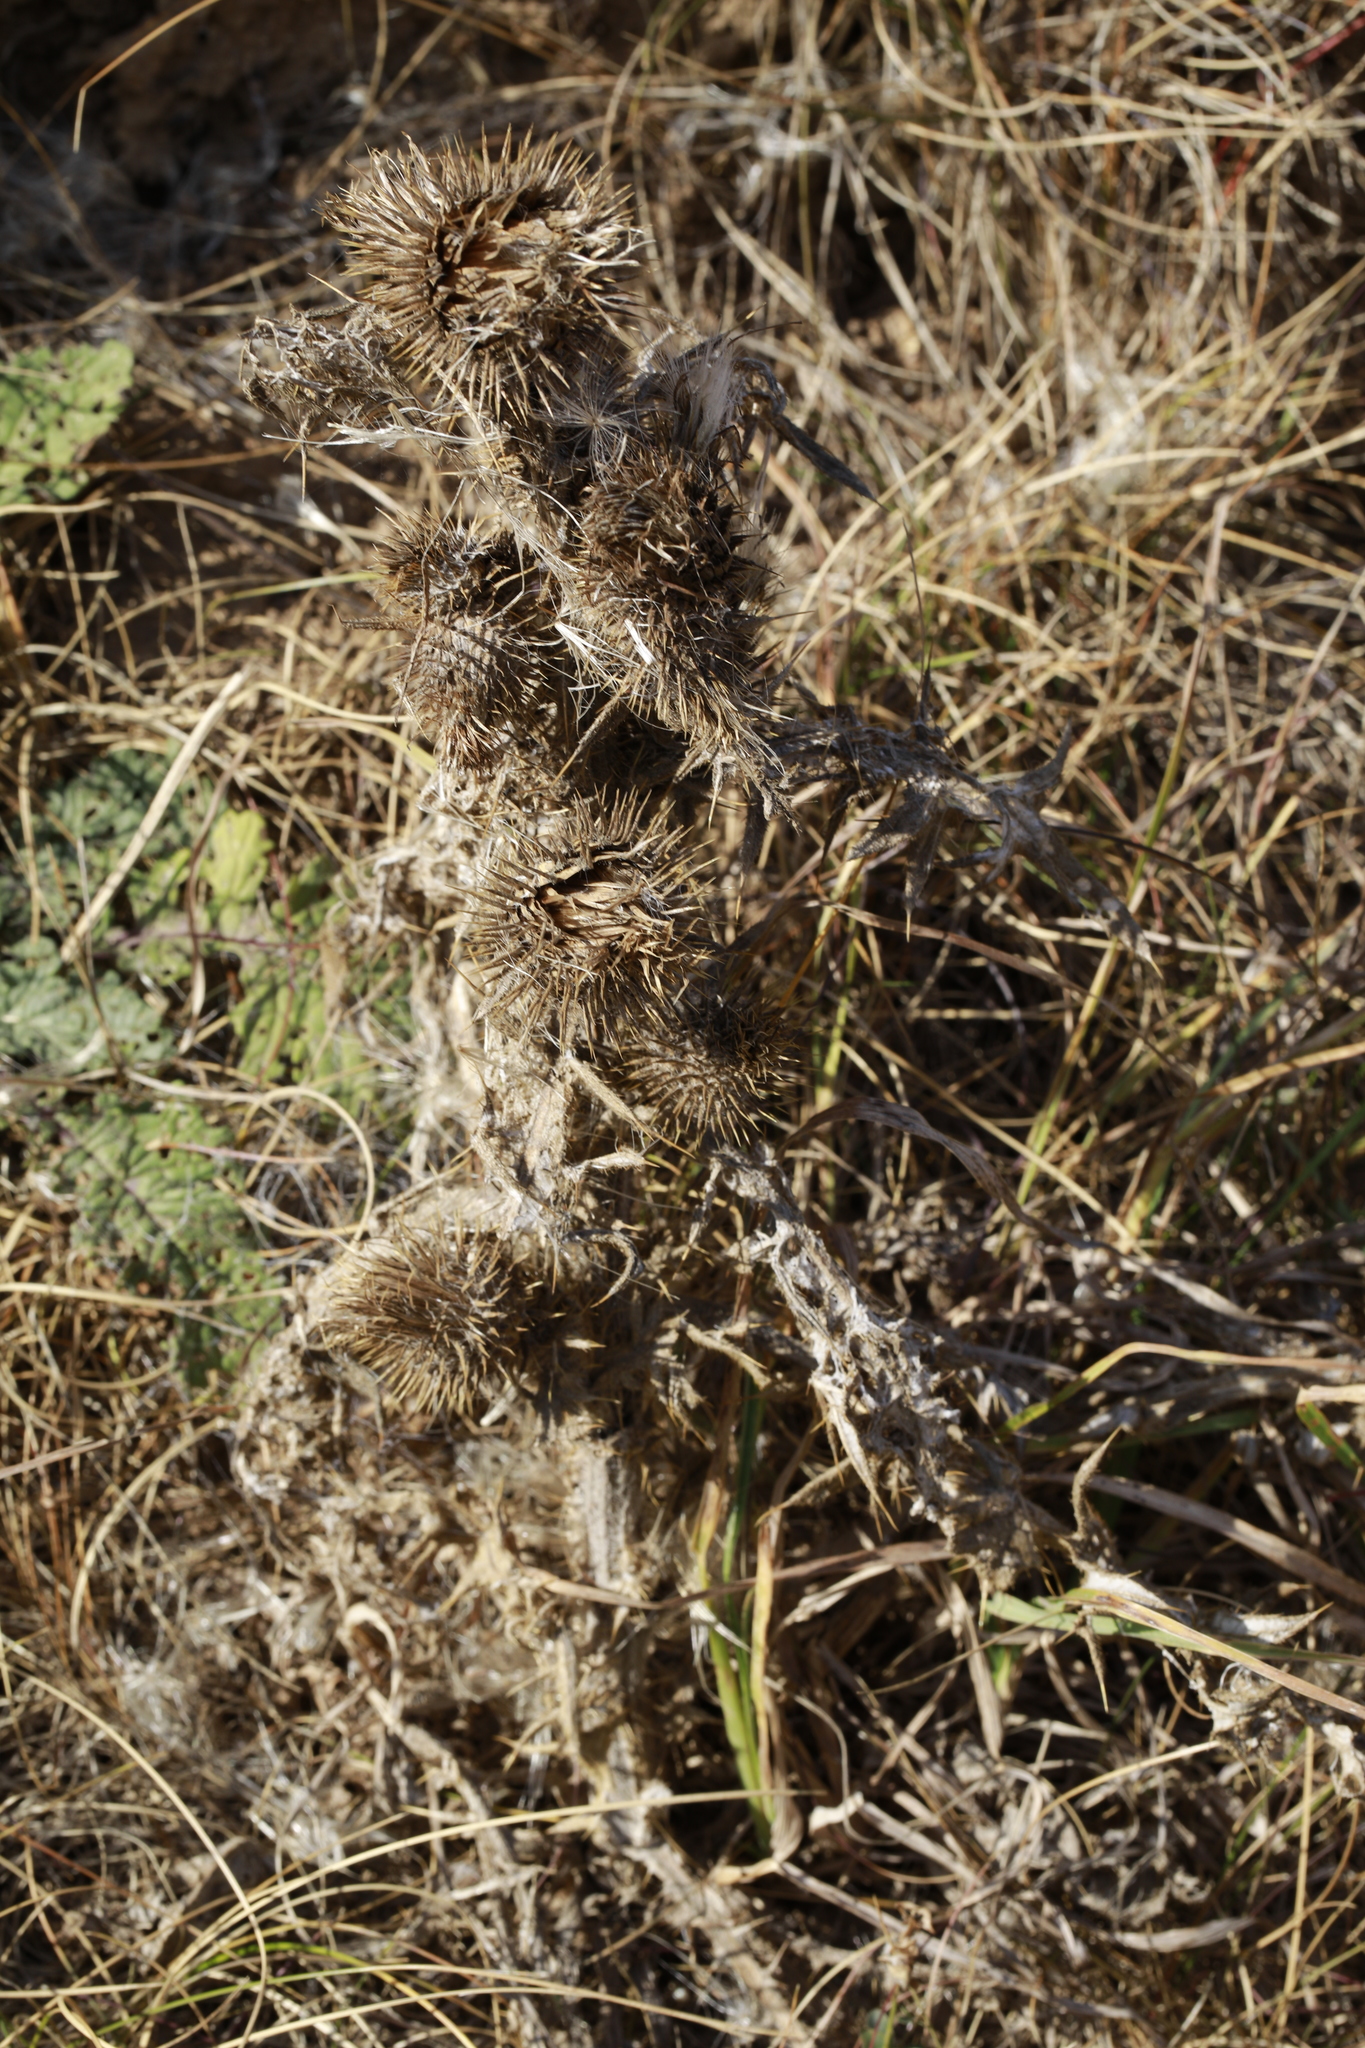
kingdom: Plantae
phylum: Tracheophyta
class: Magnoliopsida
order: Asterales
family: Asteraceae
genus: Cirsium
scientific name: Cirsium vulgare
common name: Bull thistle
